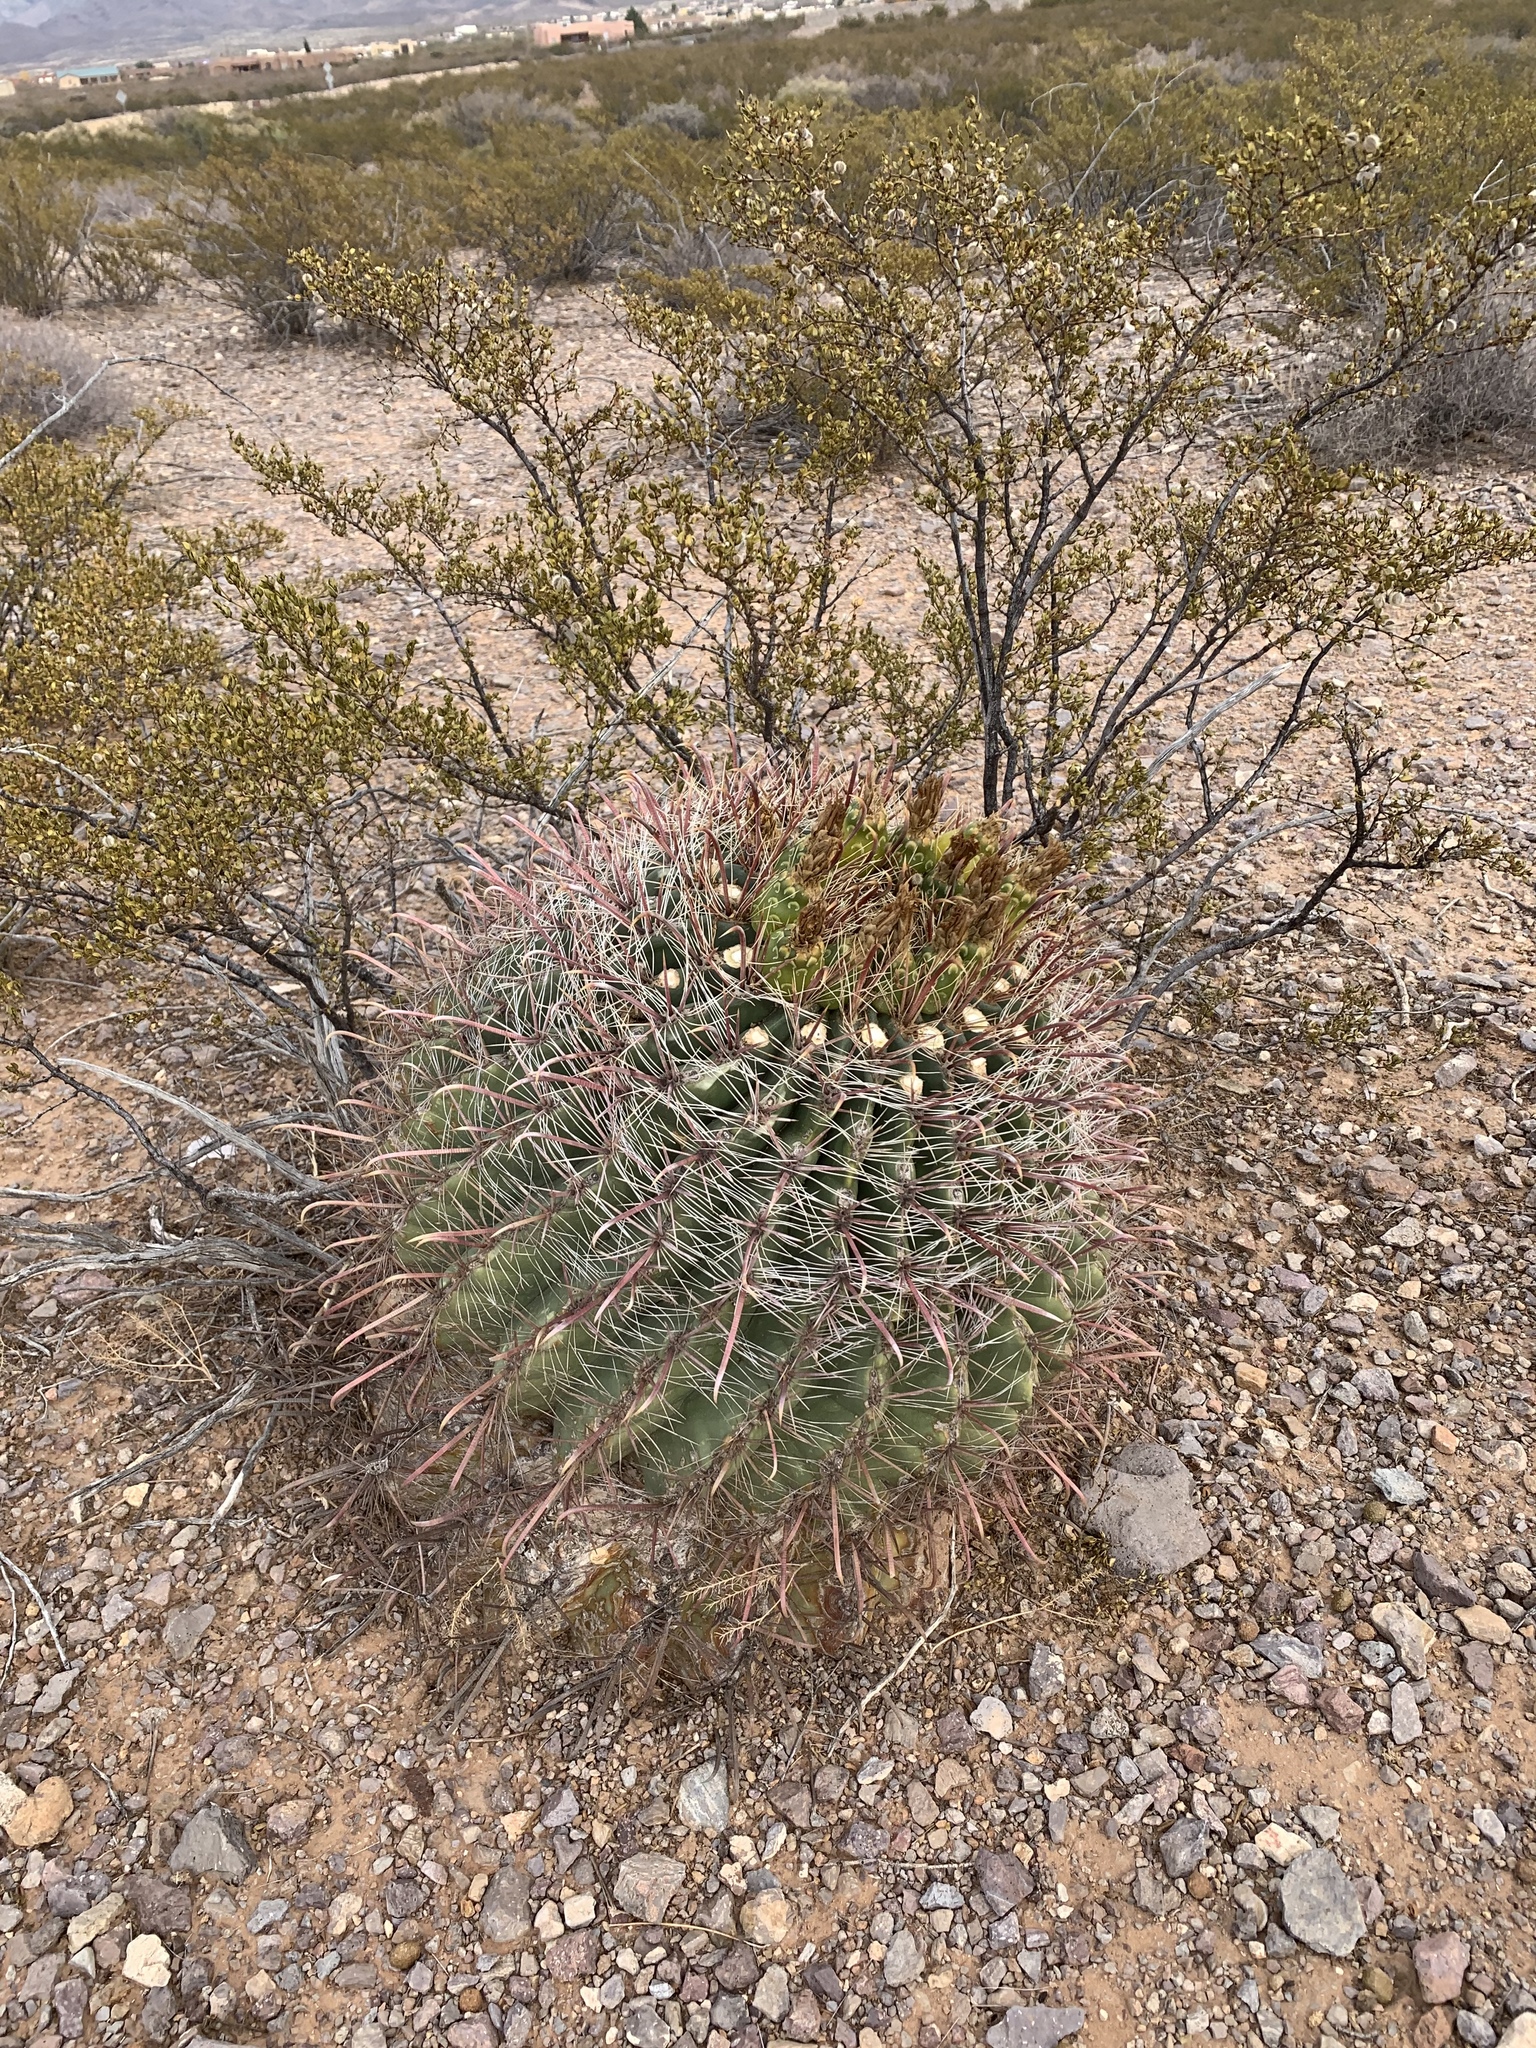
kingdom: Plantae
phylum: Tracheophyta
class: Magnoliopsida
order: Caryophyllales
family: Cactaceae
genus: Ferocactus
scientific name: Ferocactus wislizeni
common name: Candy barrel cactus
